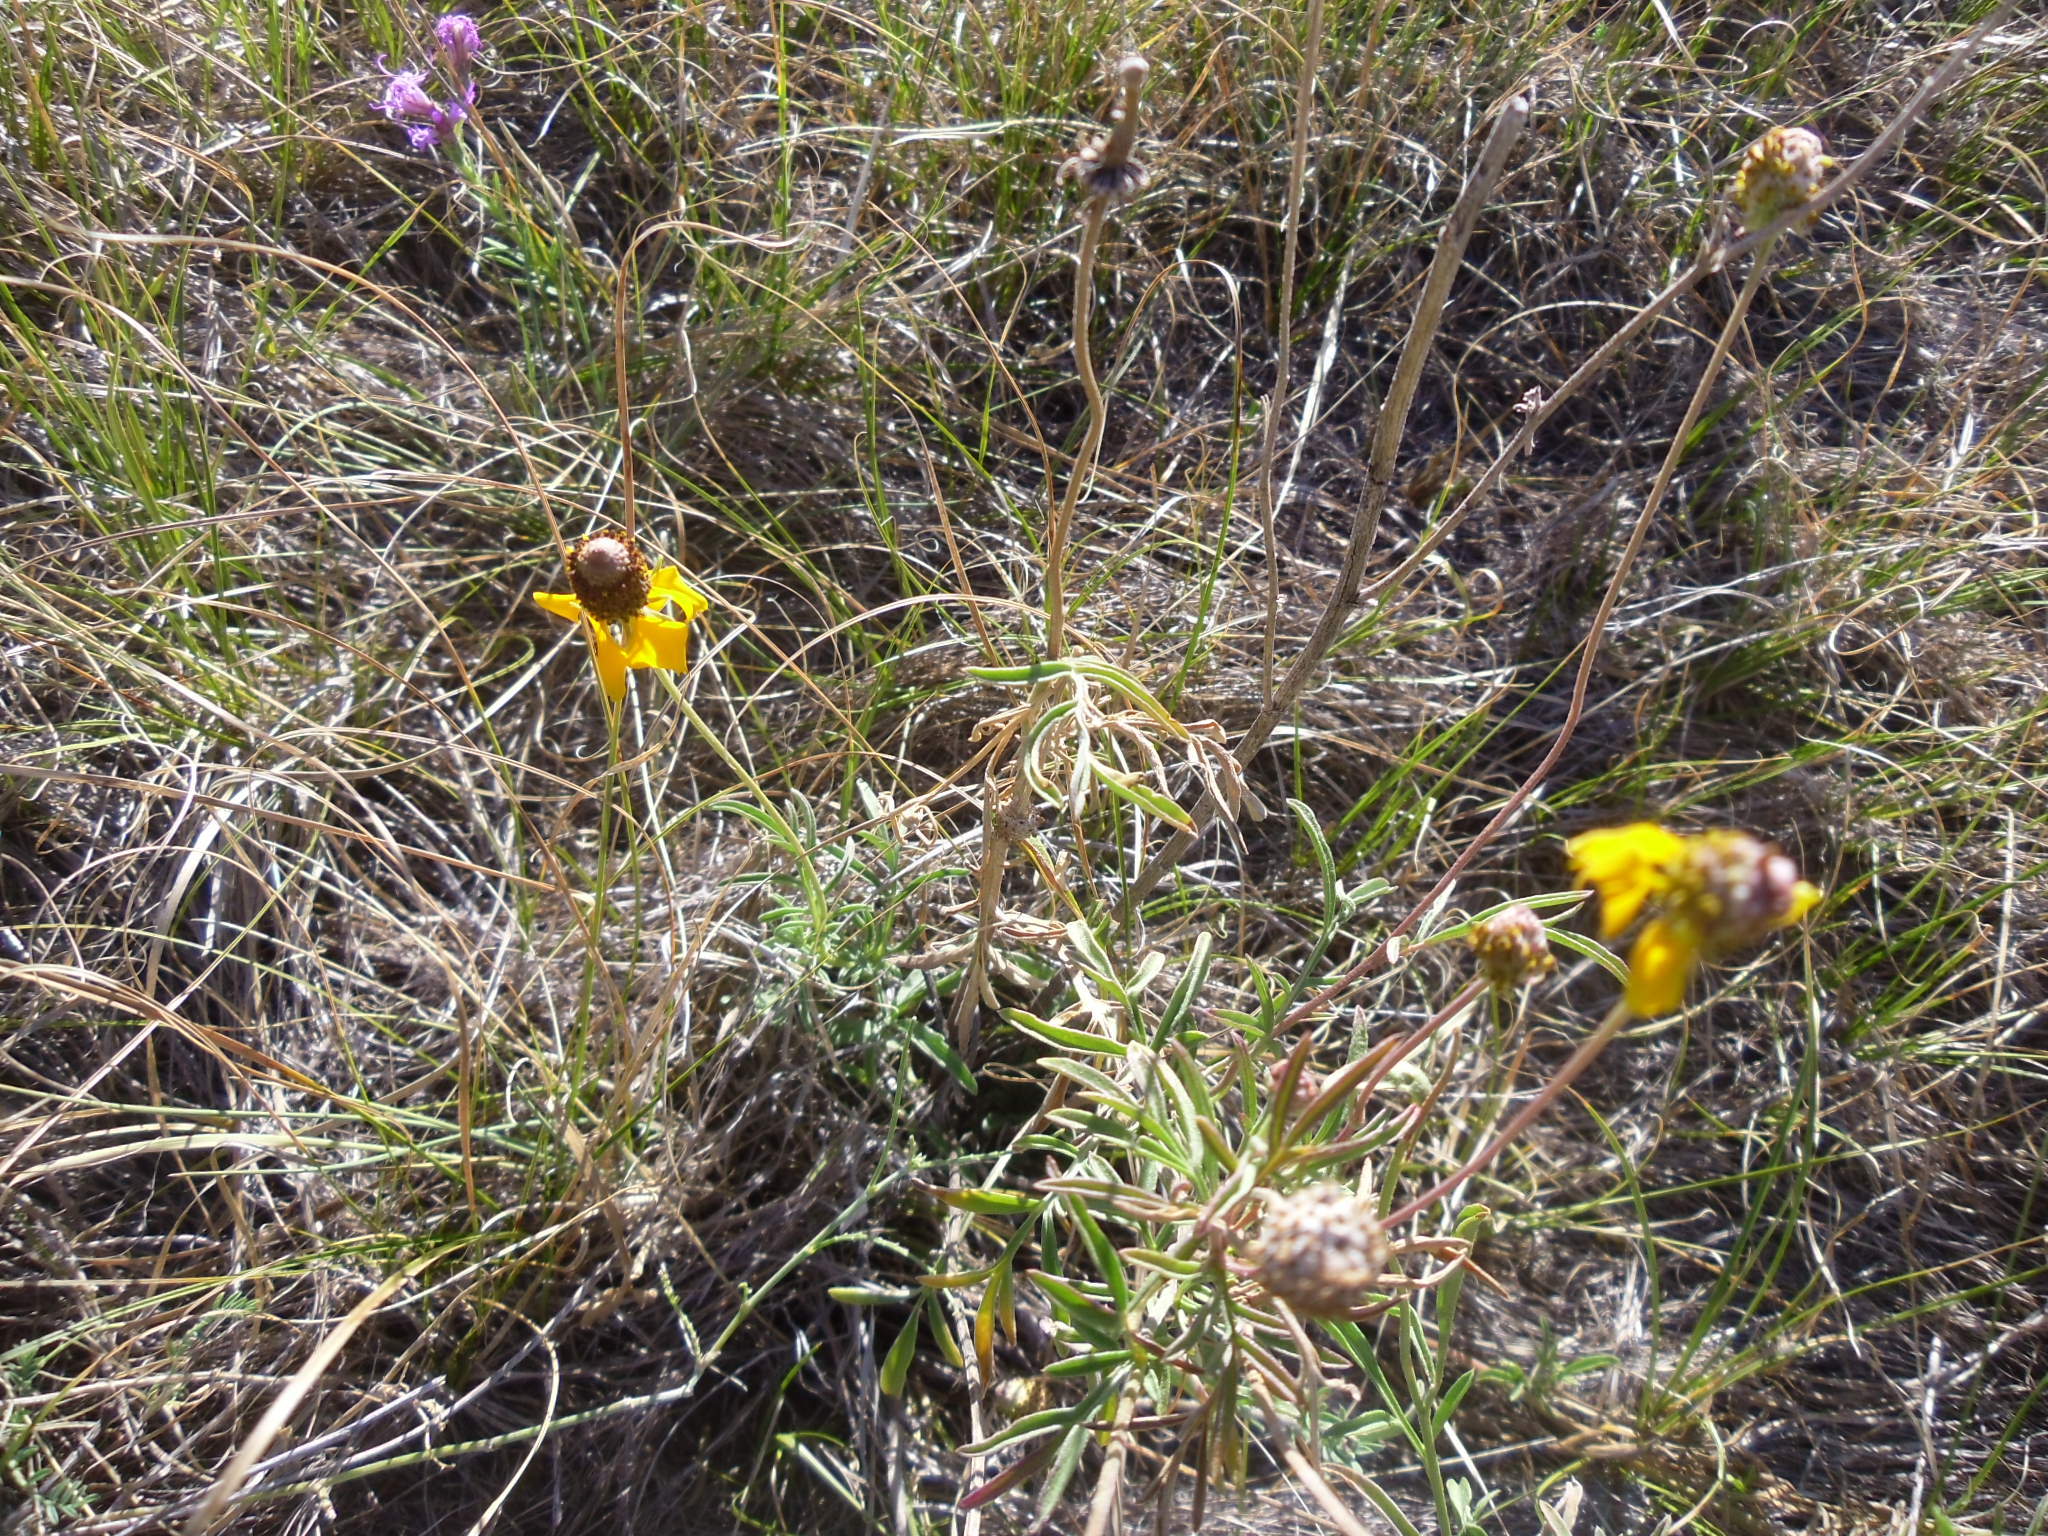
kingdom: Plantae
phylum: Tracheophyta
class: Magnoliopsida
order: Asterales
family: Asteraceae
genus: Ratibida
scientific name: Ratibida columnifera
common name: Prairie coneflower
